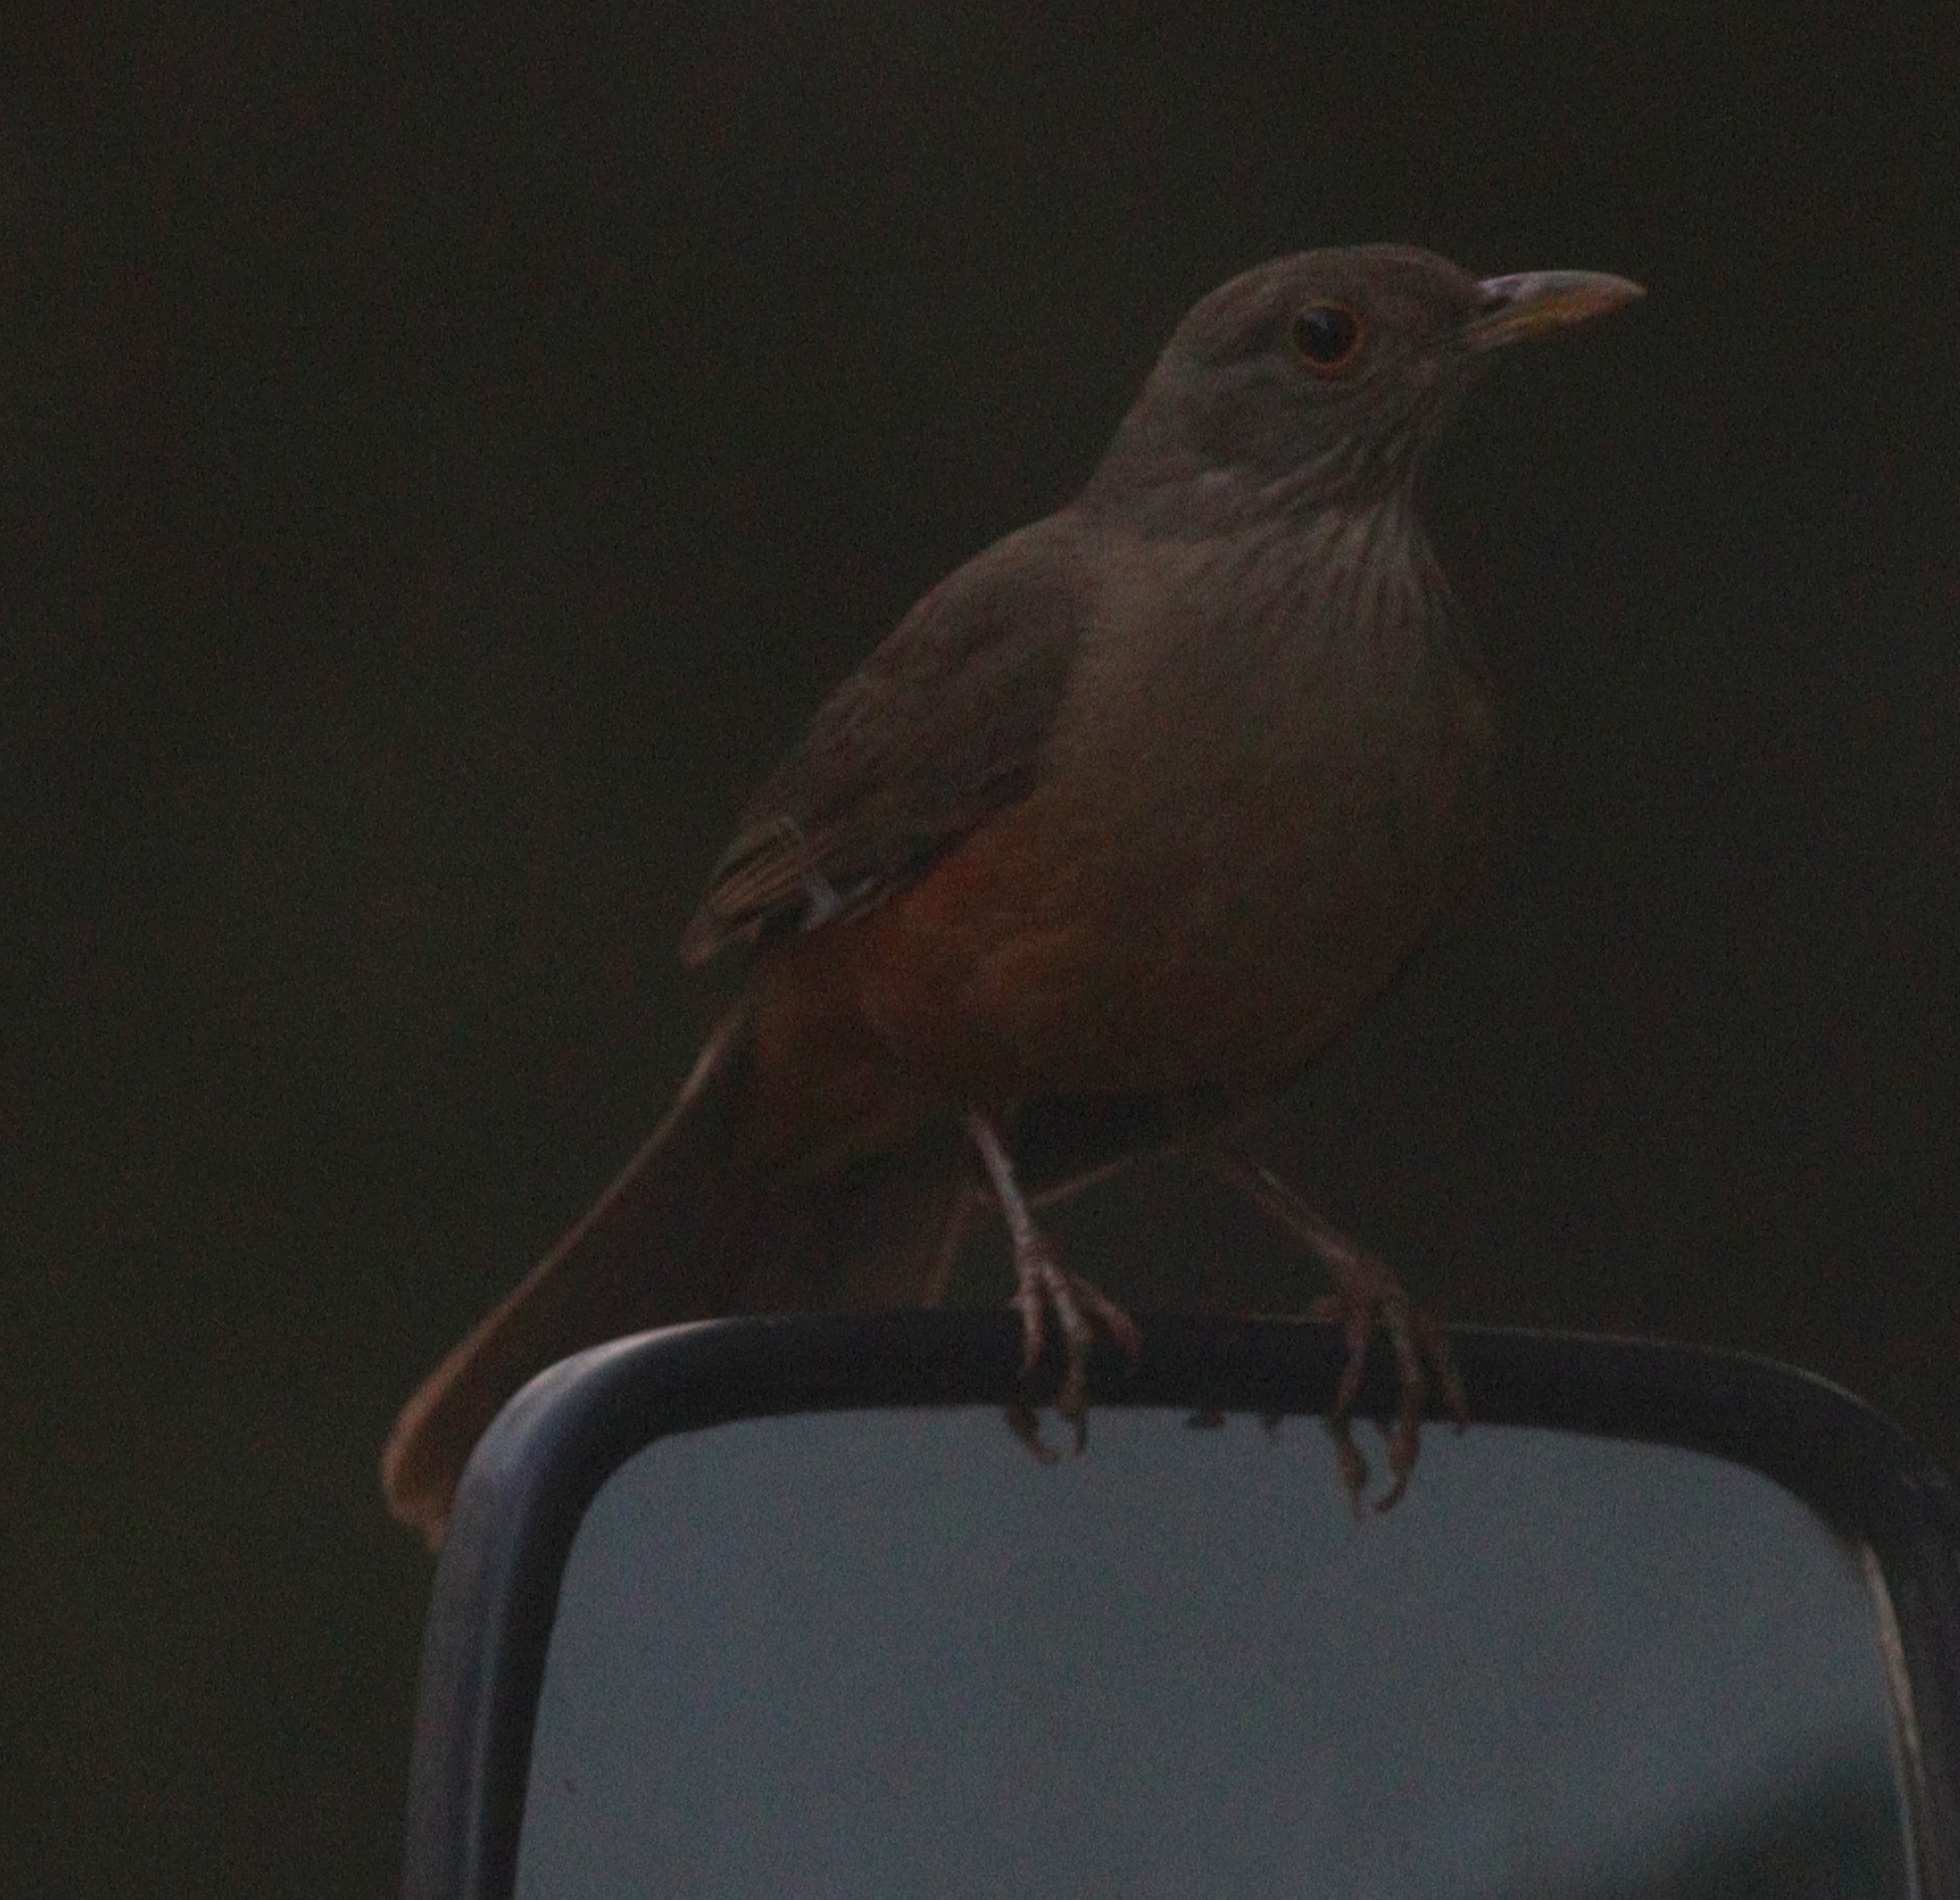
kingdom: Animalia
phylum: Chordata
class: Aves
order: Passeriformes
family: Turdidae
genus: Turdus
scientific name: Turdus rufiventris
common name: Rufous-bellied thrush
